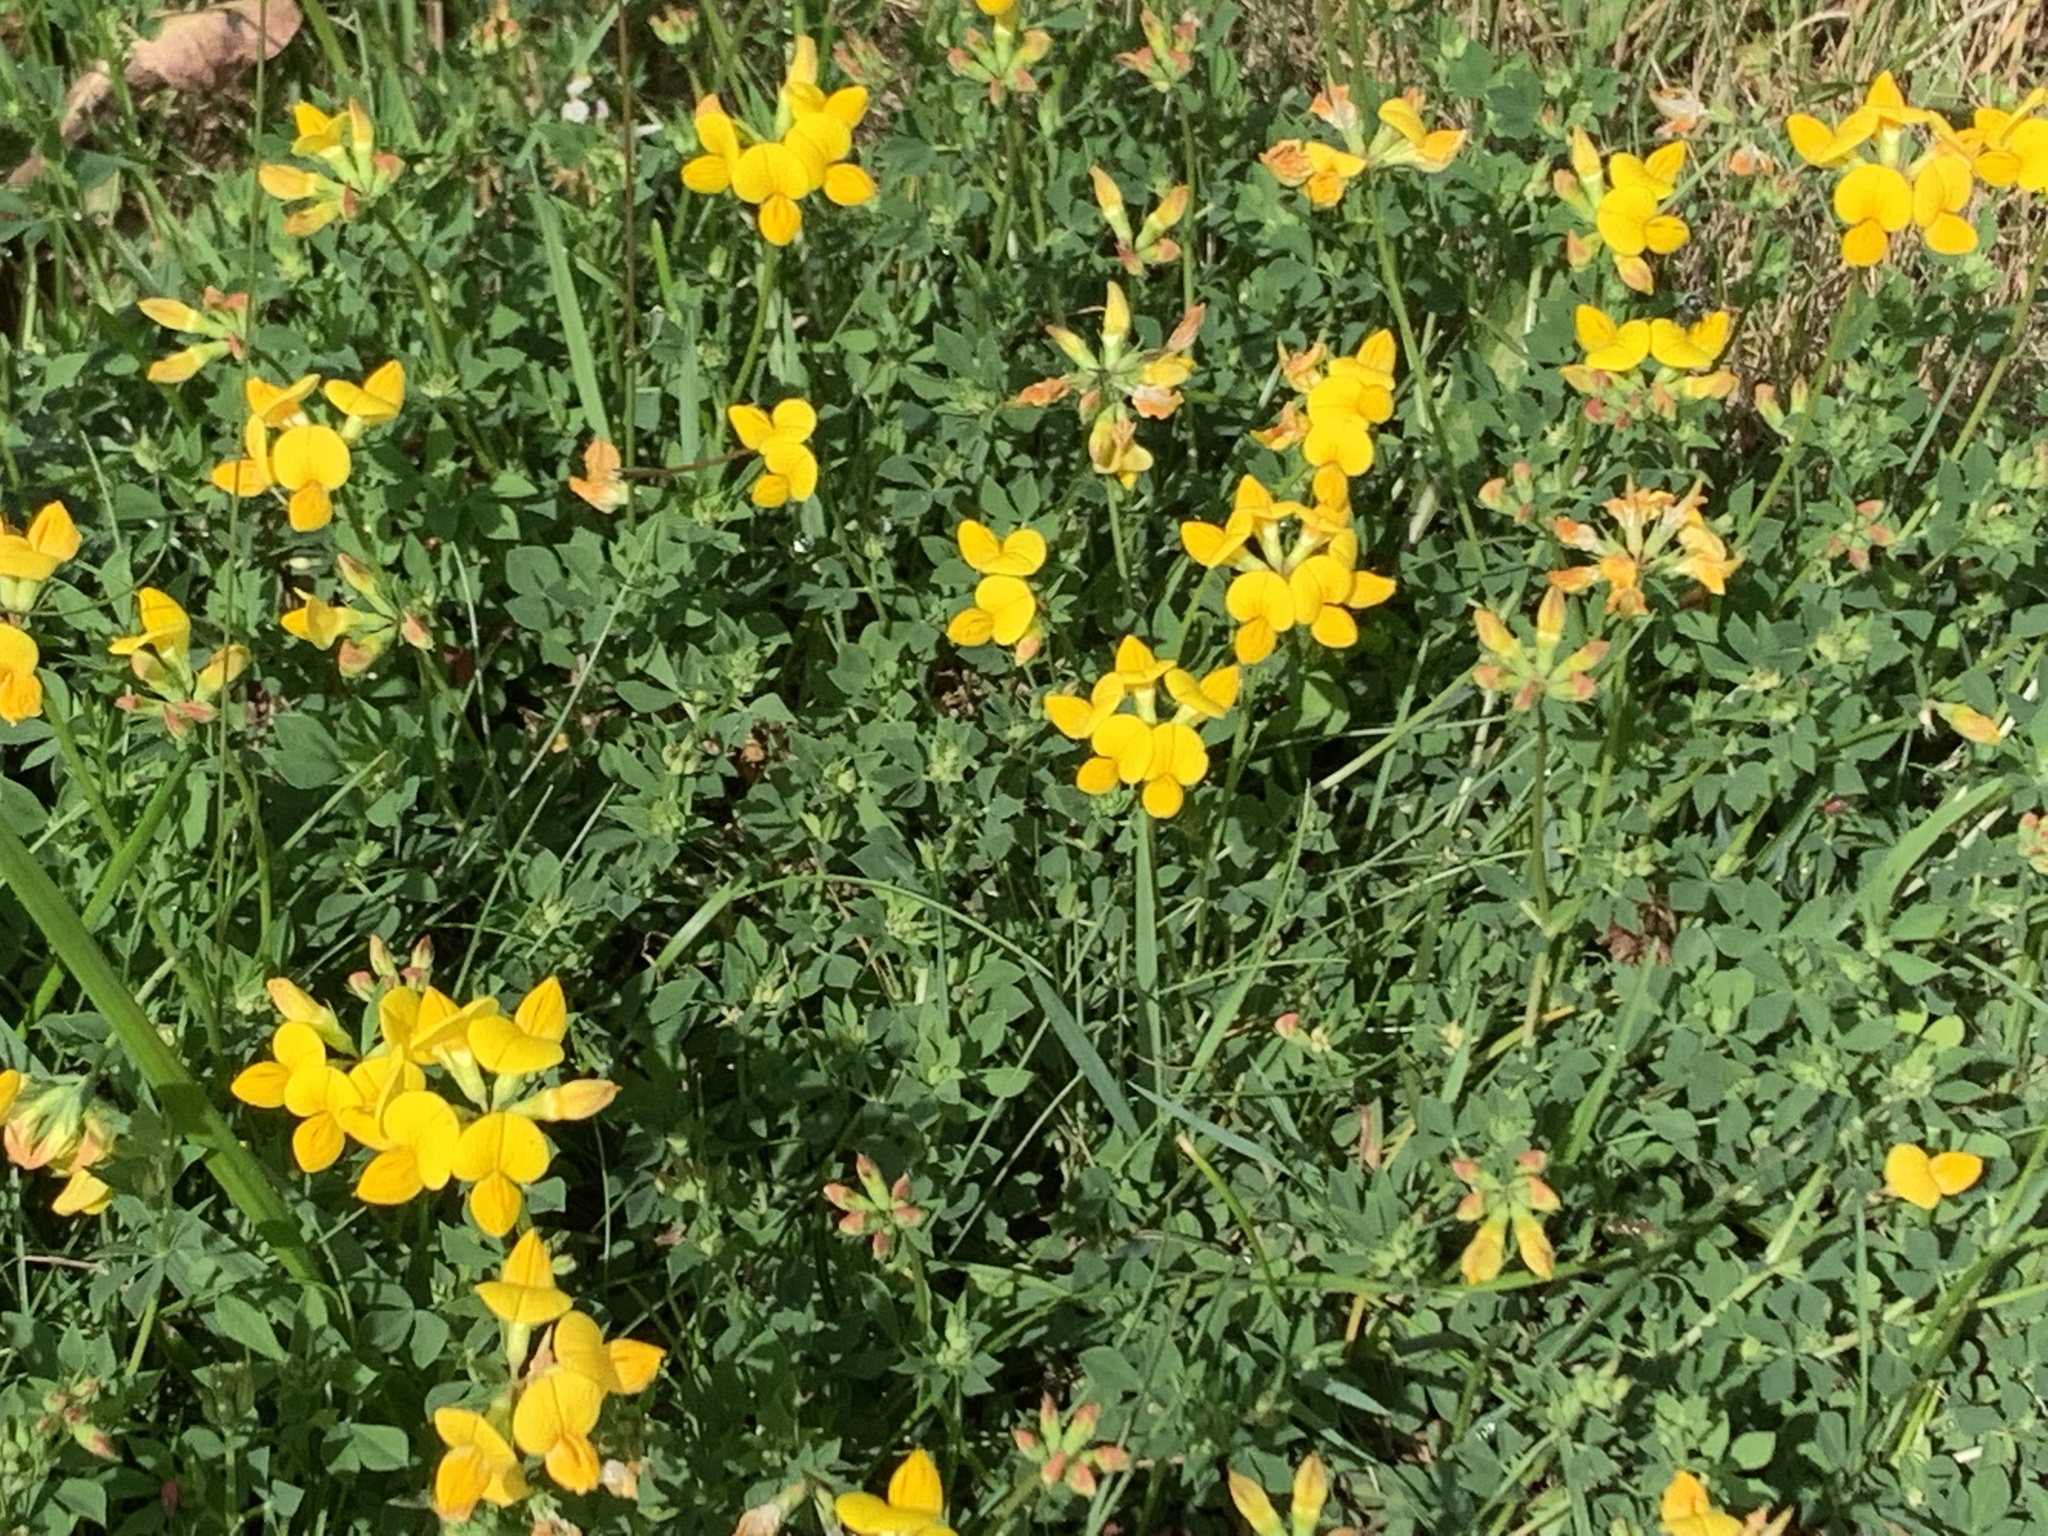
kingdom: Plantae
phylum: Tracheophyta
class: Magnoliopsida
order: Fabales
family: Fabaceae
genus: Lotus
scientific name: Lotus corniculatus
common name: Common bird's-foot-trefoil
